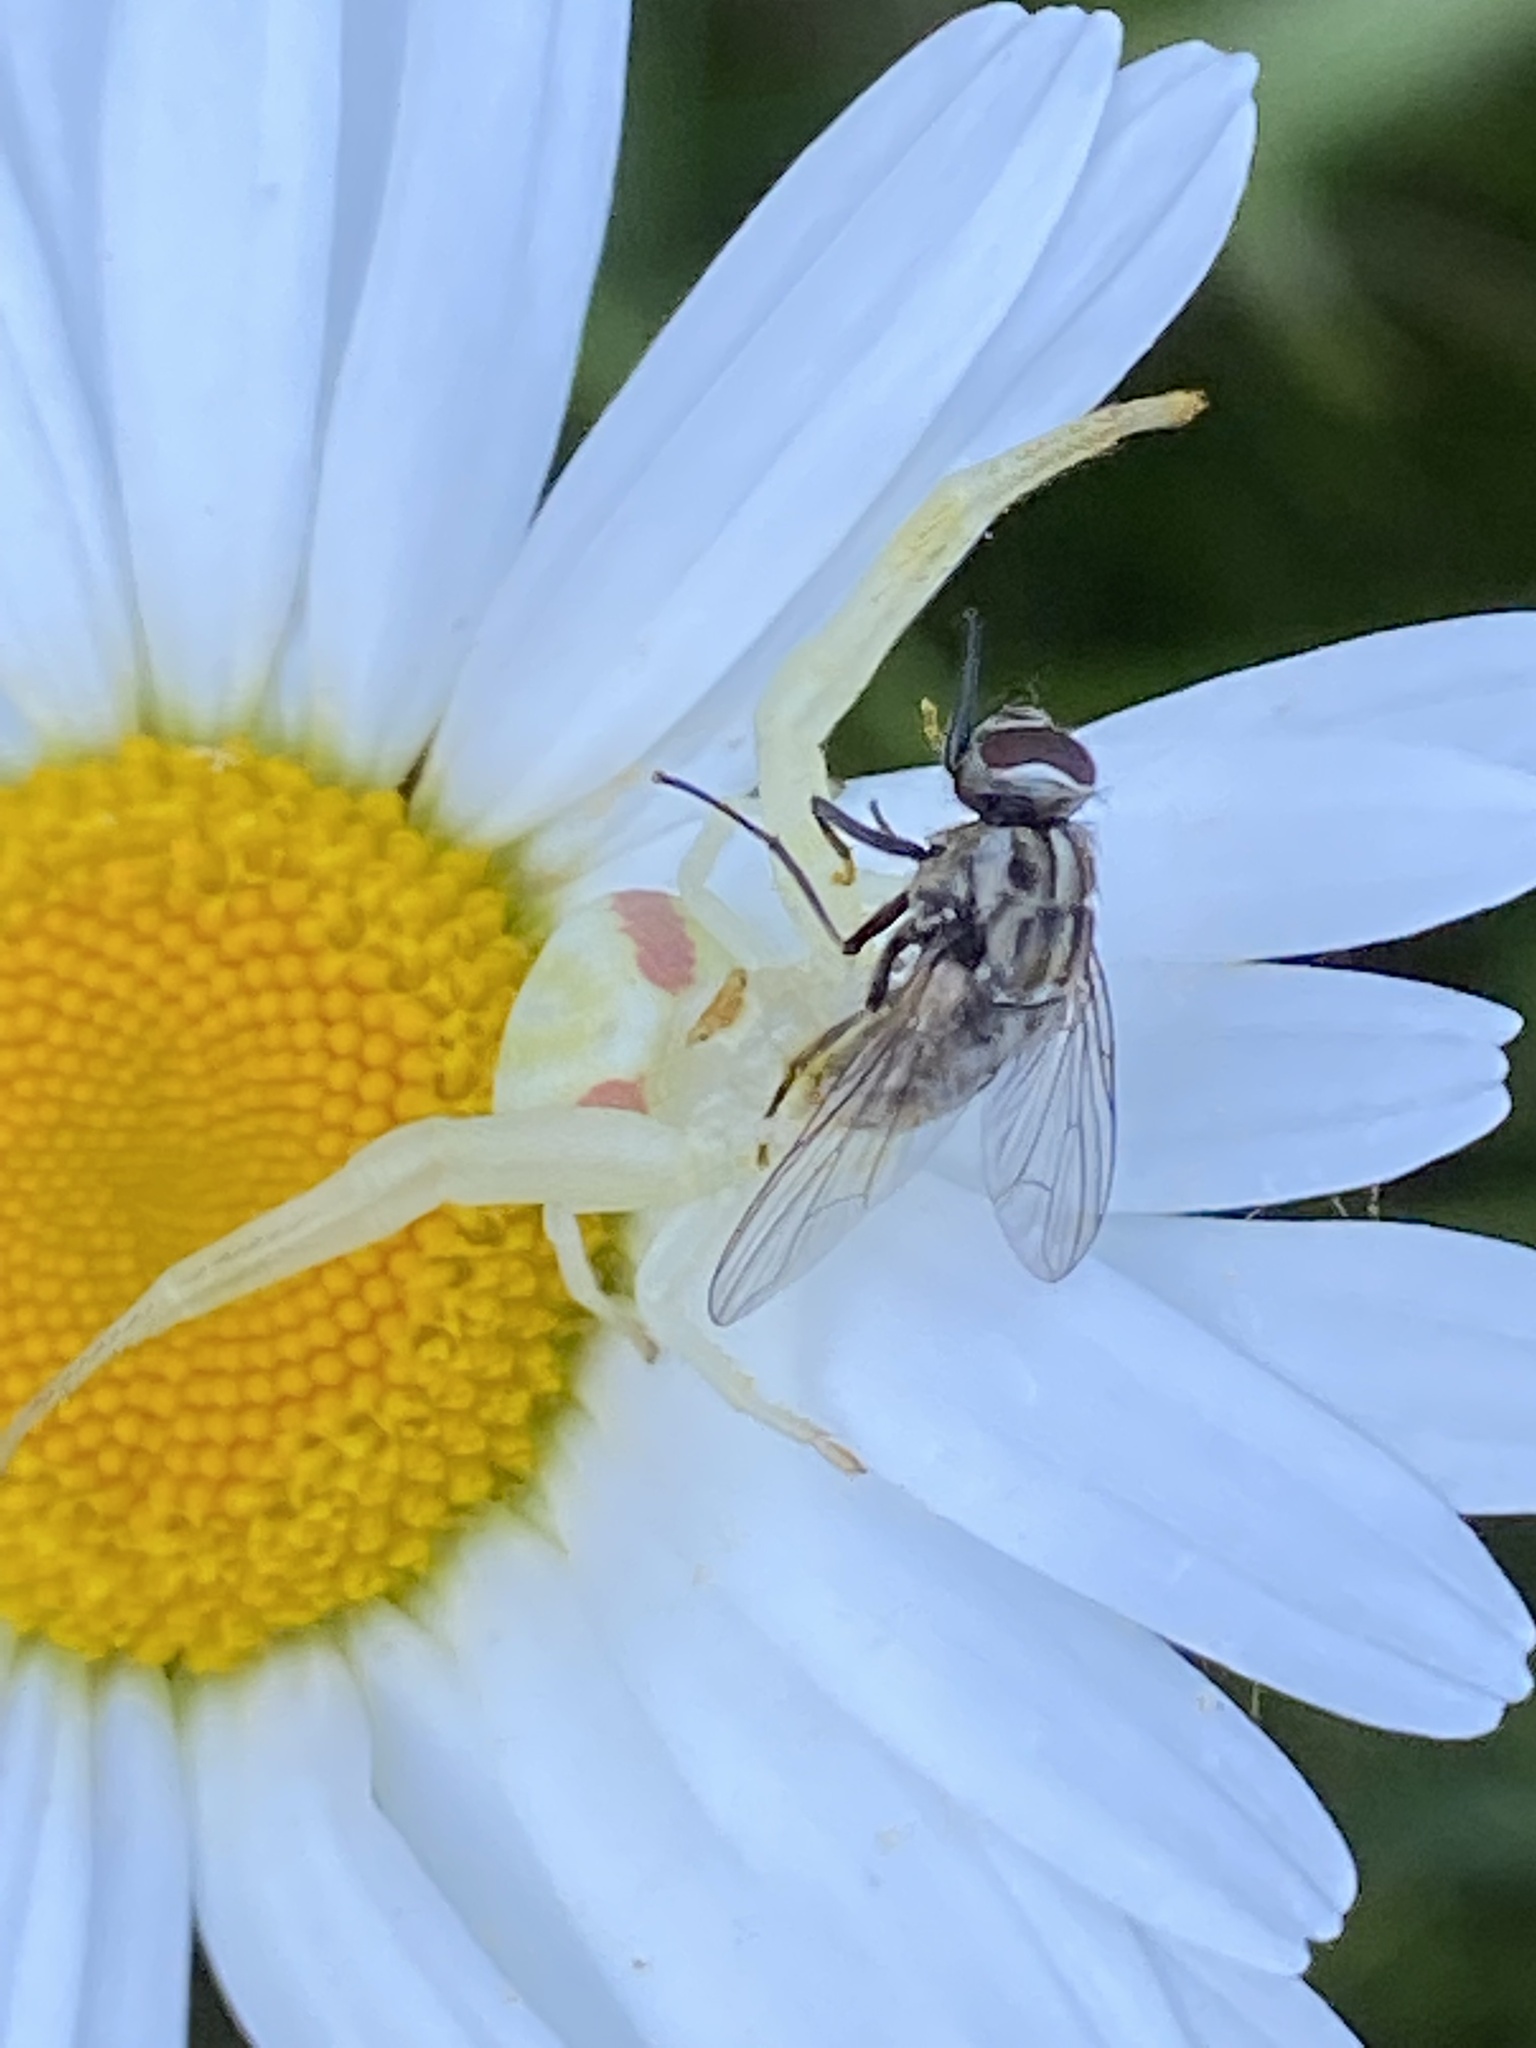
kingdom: Animalia
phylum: Arthropoda
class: Arachnida
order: Araneae
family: Thomisidae
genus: Misumena
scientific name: Misumena vatia
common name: Goldenrod crab spider
